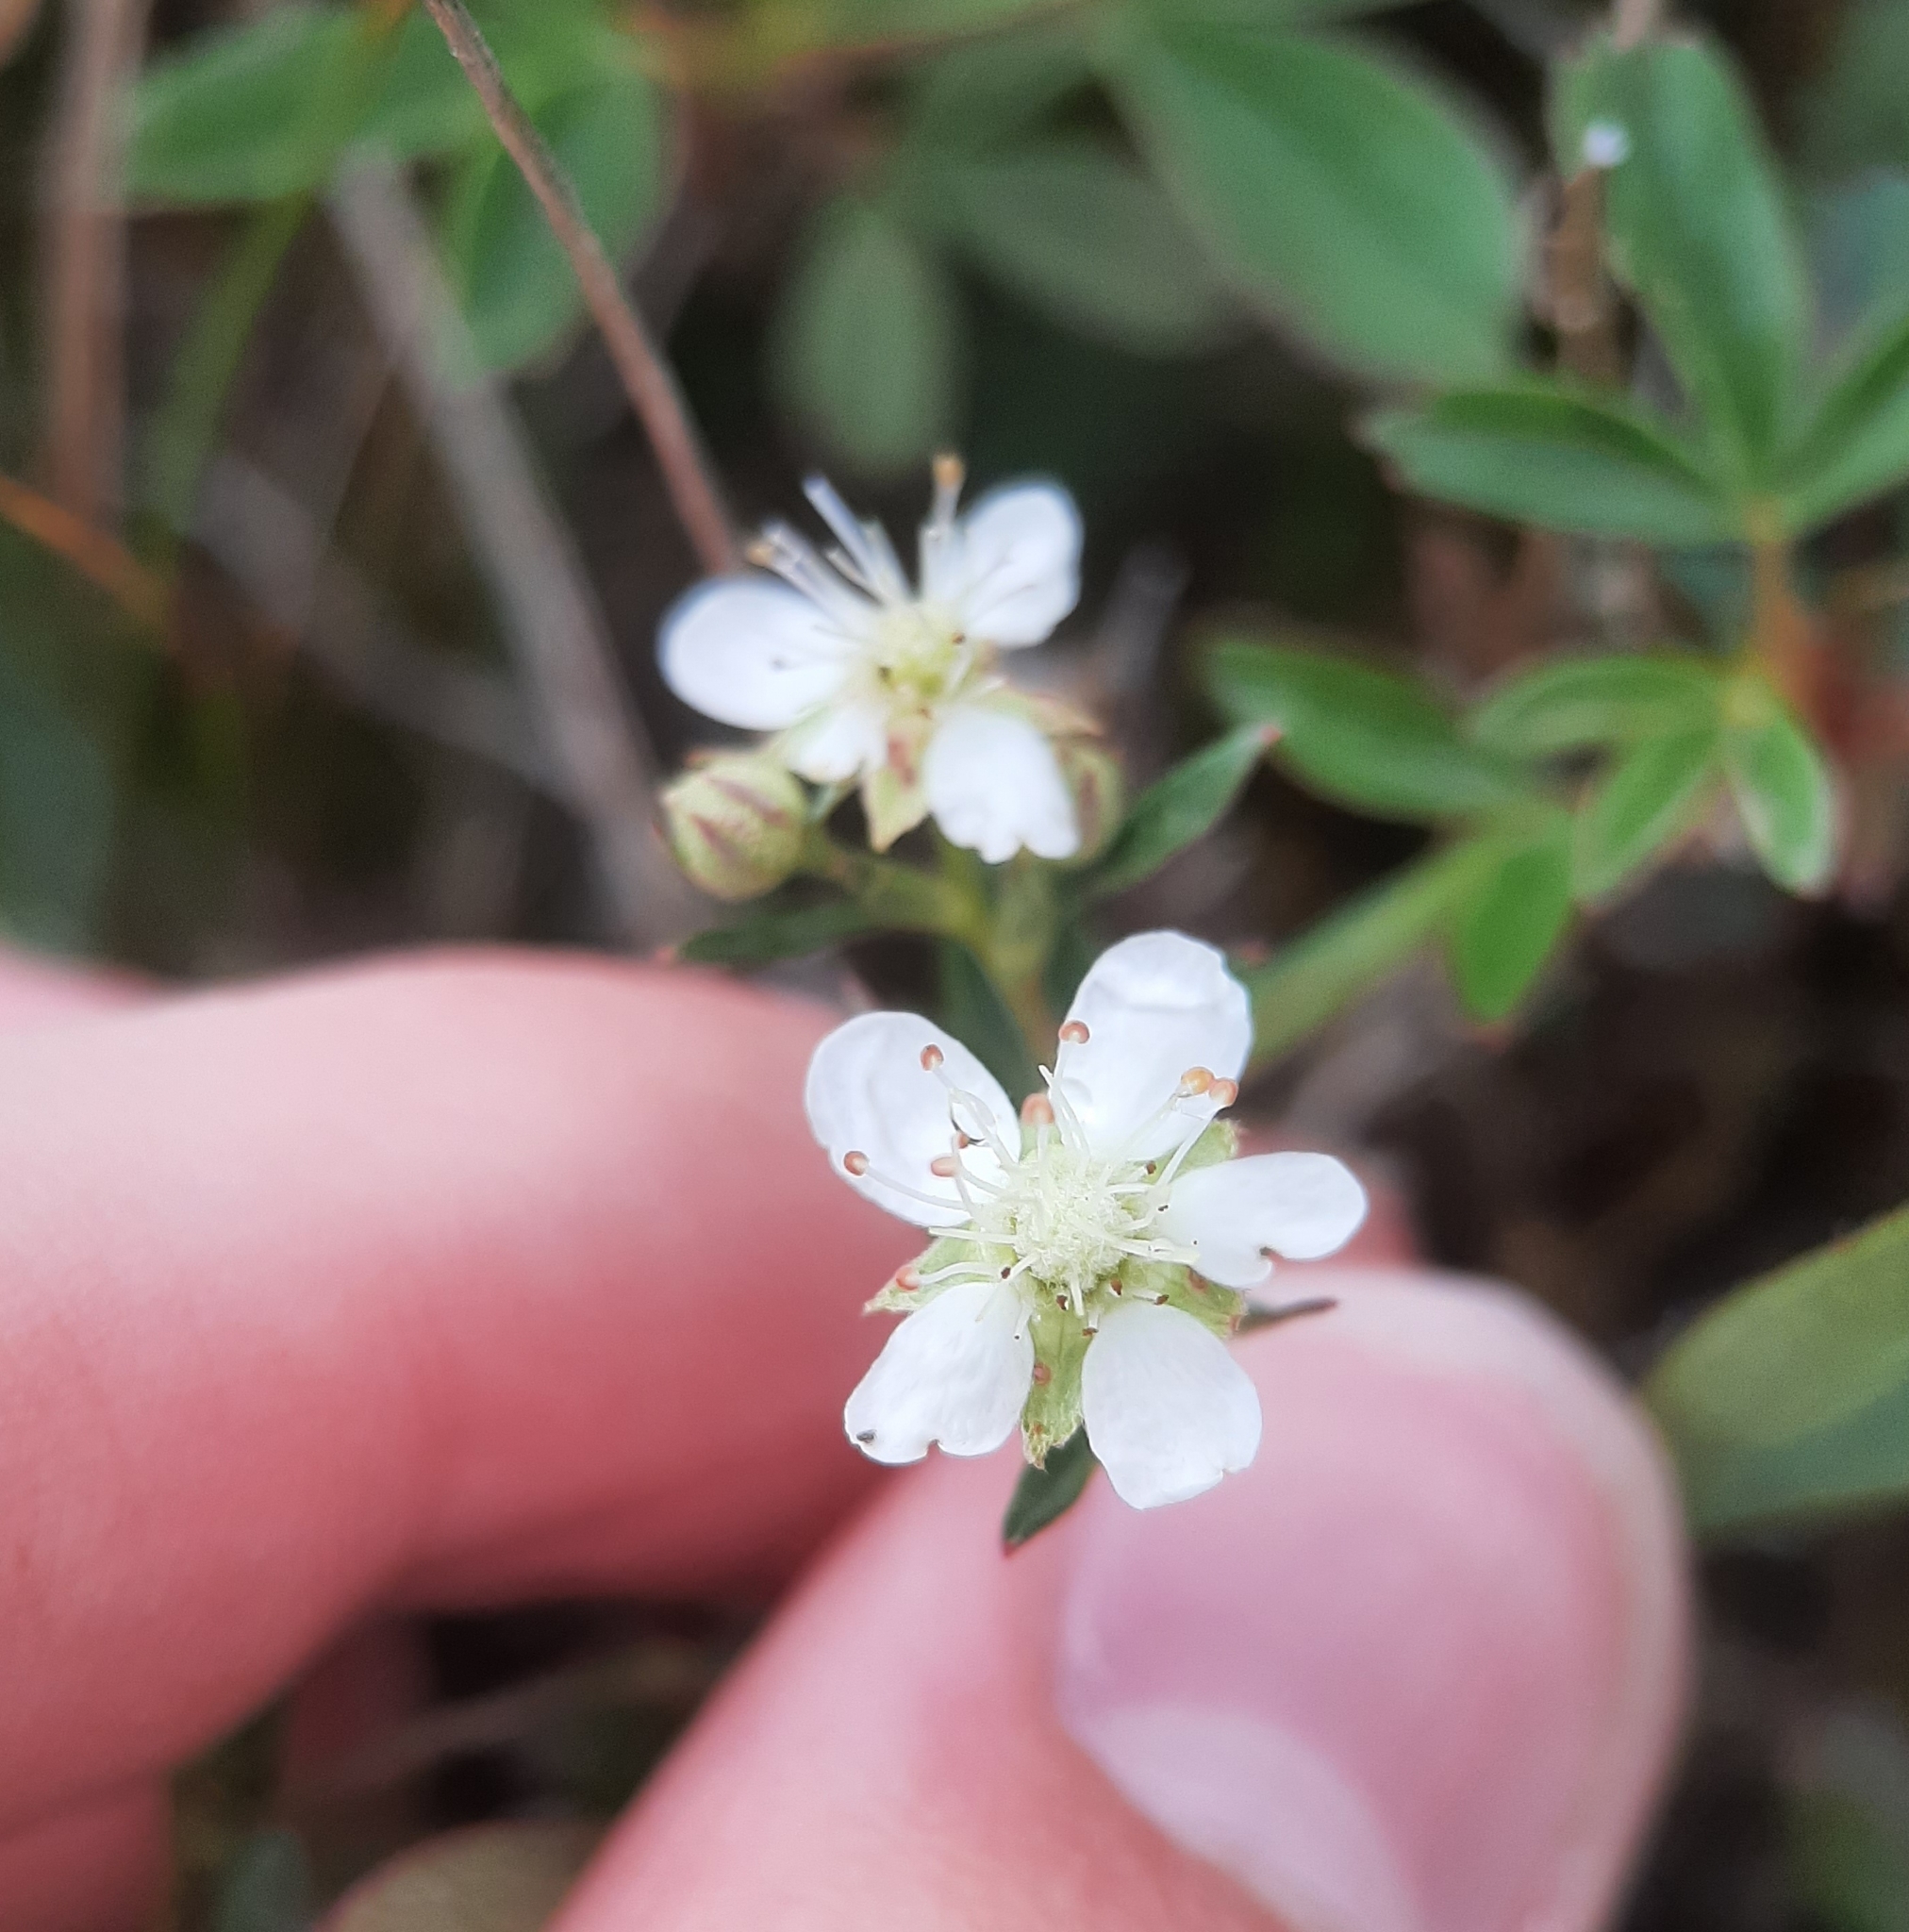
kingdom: Plantae
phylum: Tracheophyta
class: Magnoliopsida
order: Rosales
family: Rosaceae
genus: Sibbaldia
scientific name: Sibbaldia tridentata
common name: Three-toothed cinquefoil
